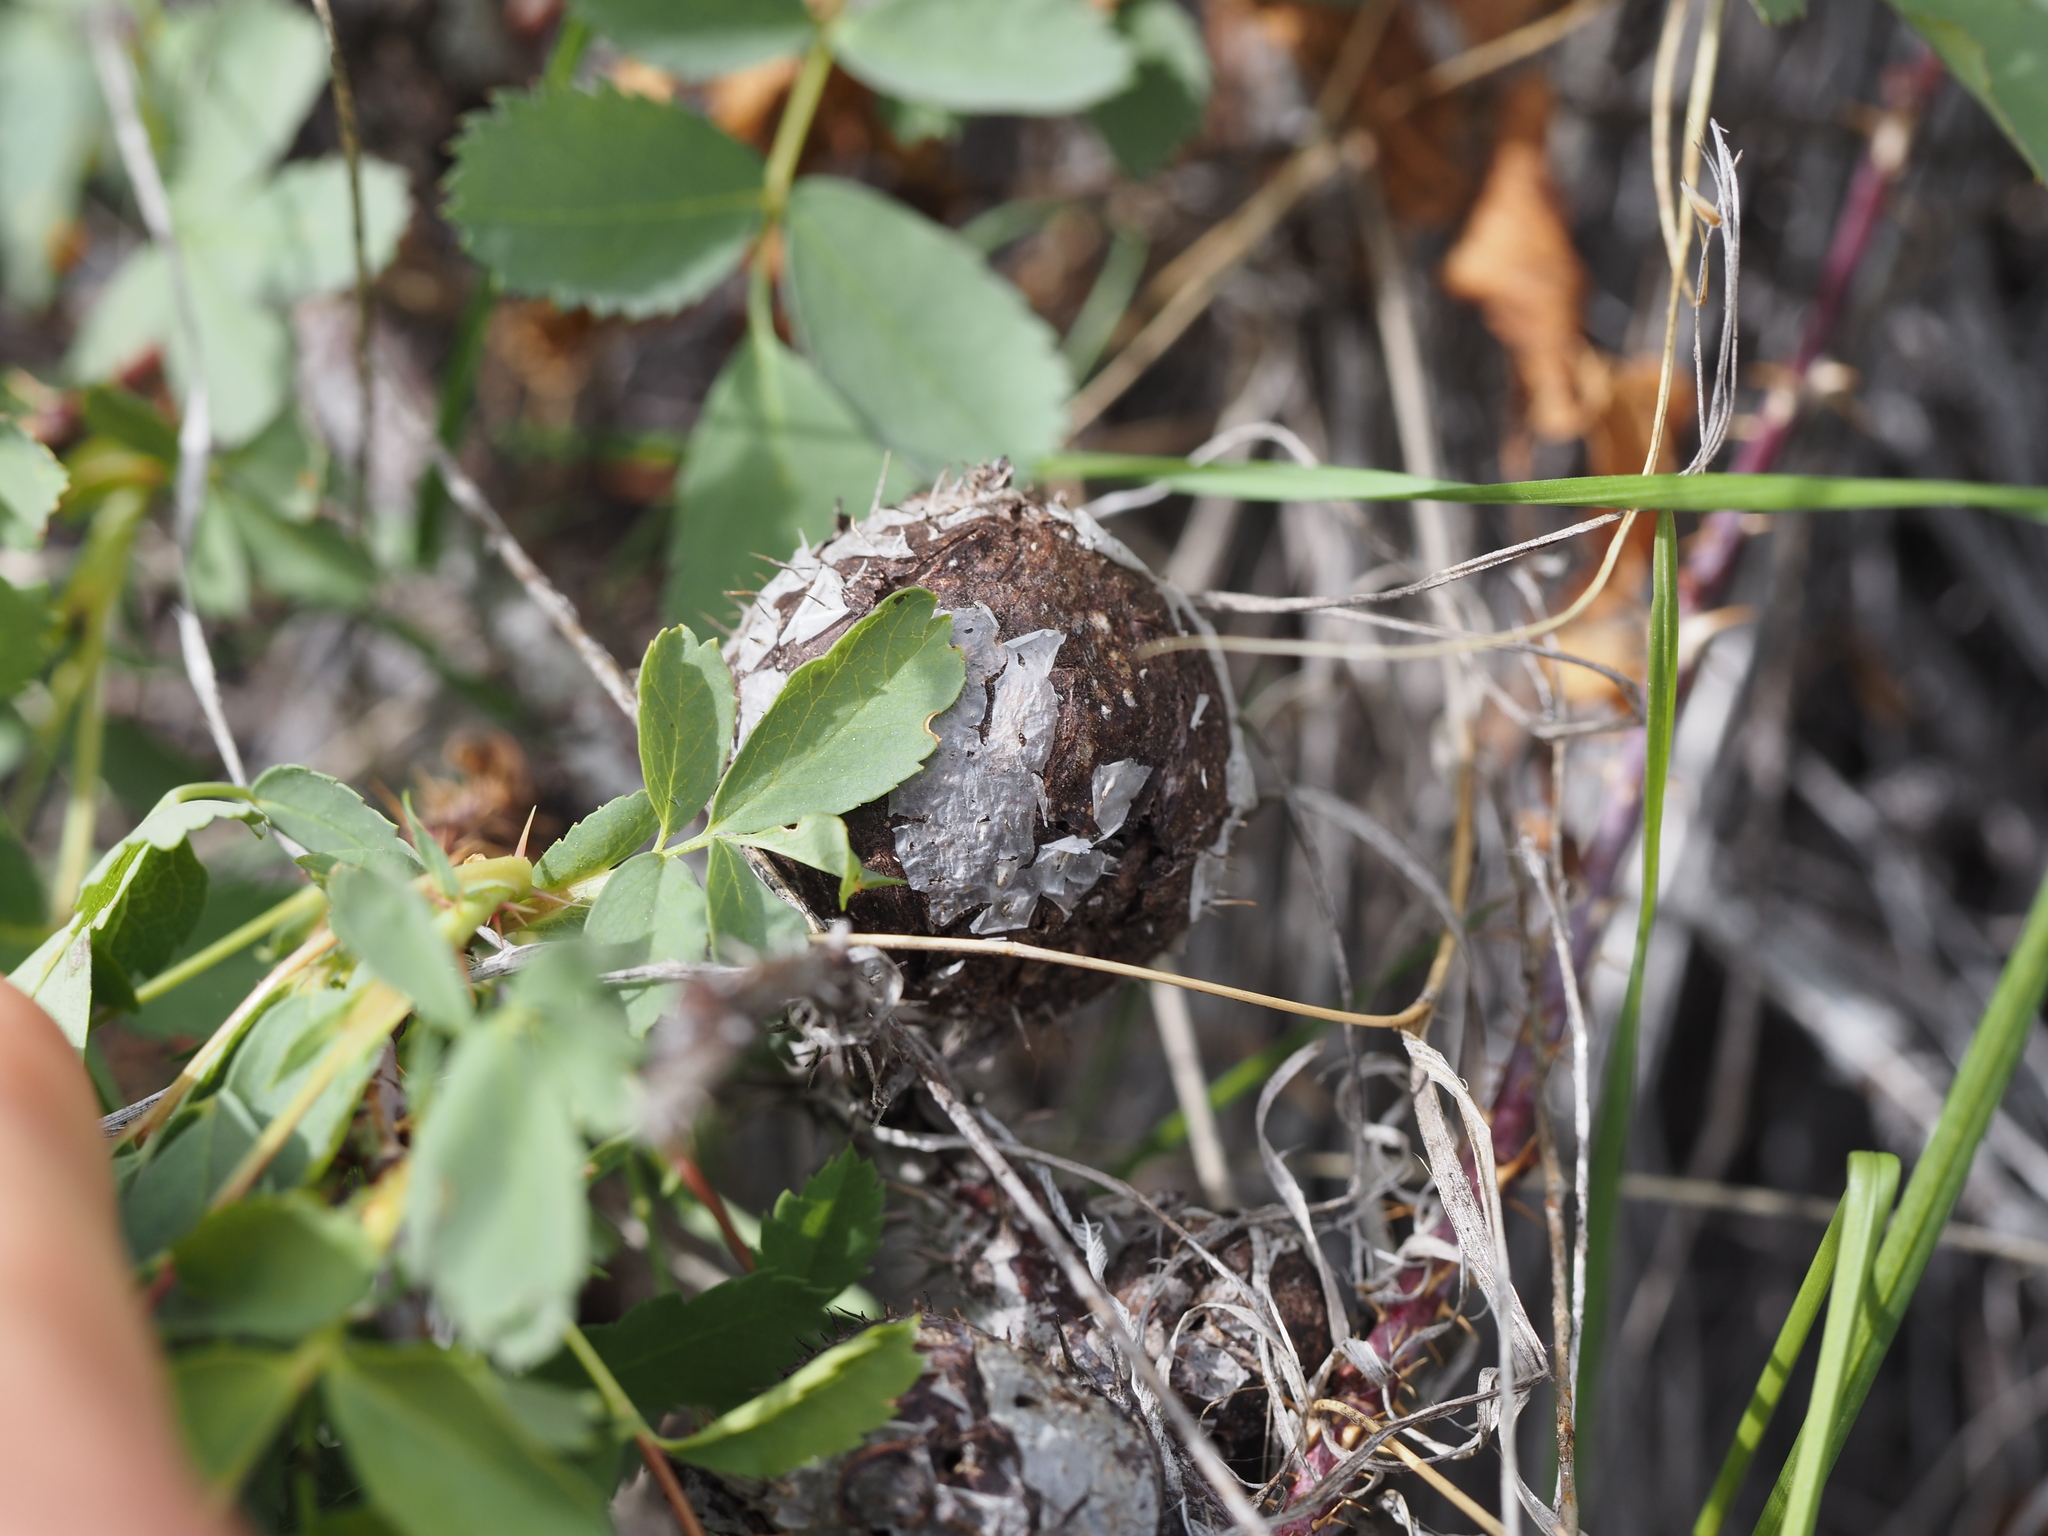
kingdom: Animalia
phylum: Arthropoda
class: Insecta
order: Hymenoptera
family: Cynipidae
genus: Diplolepis
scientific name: Diplolepis spinosa
